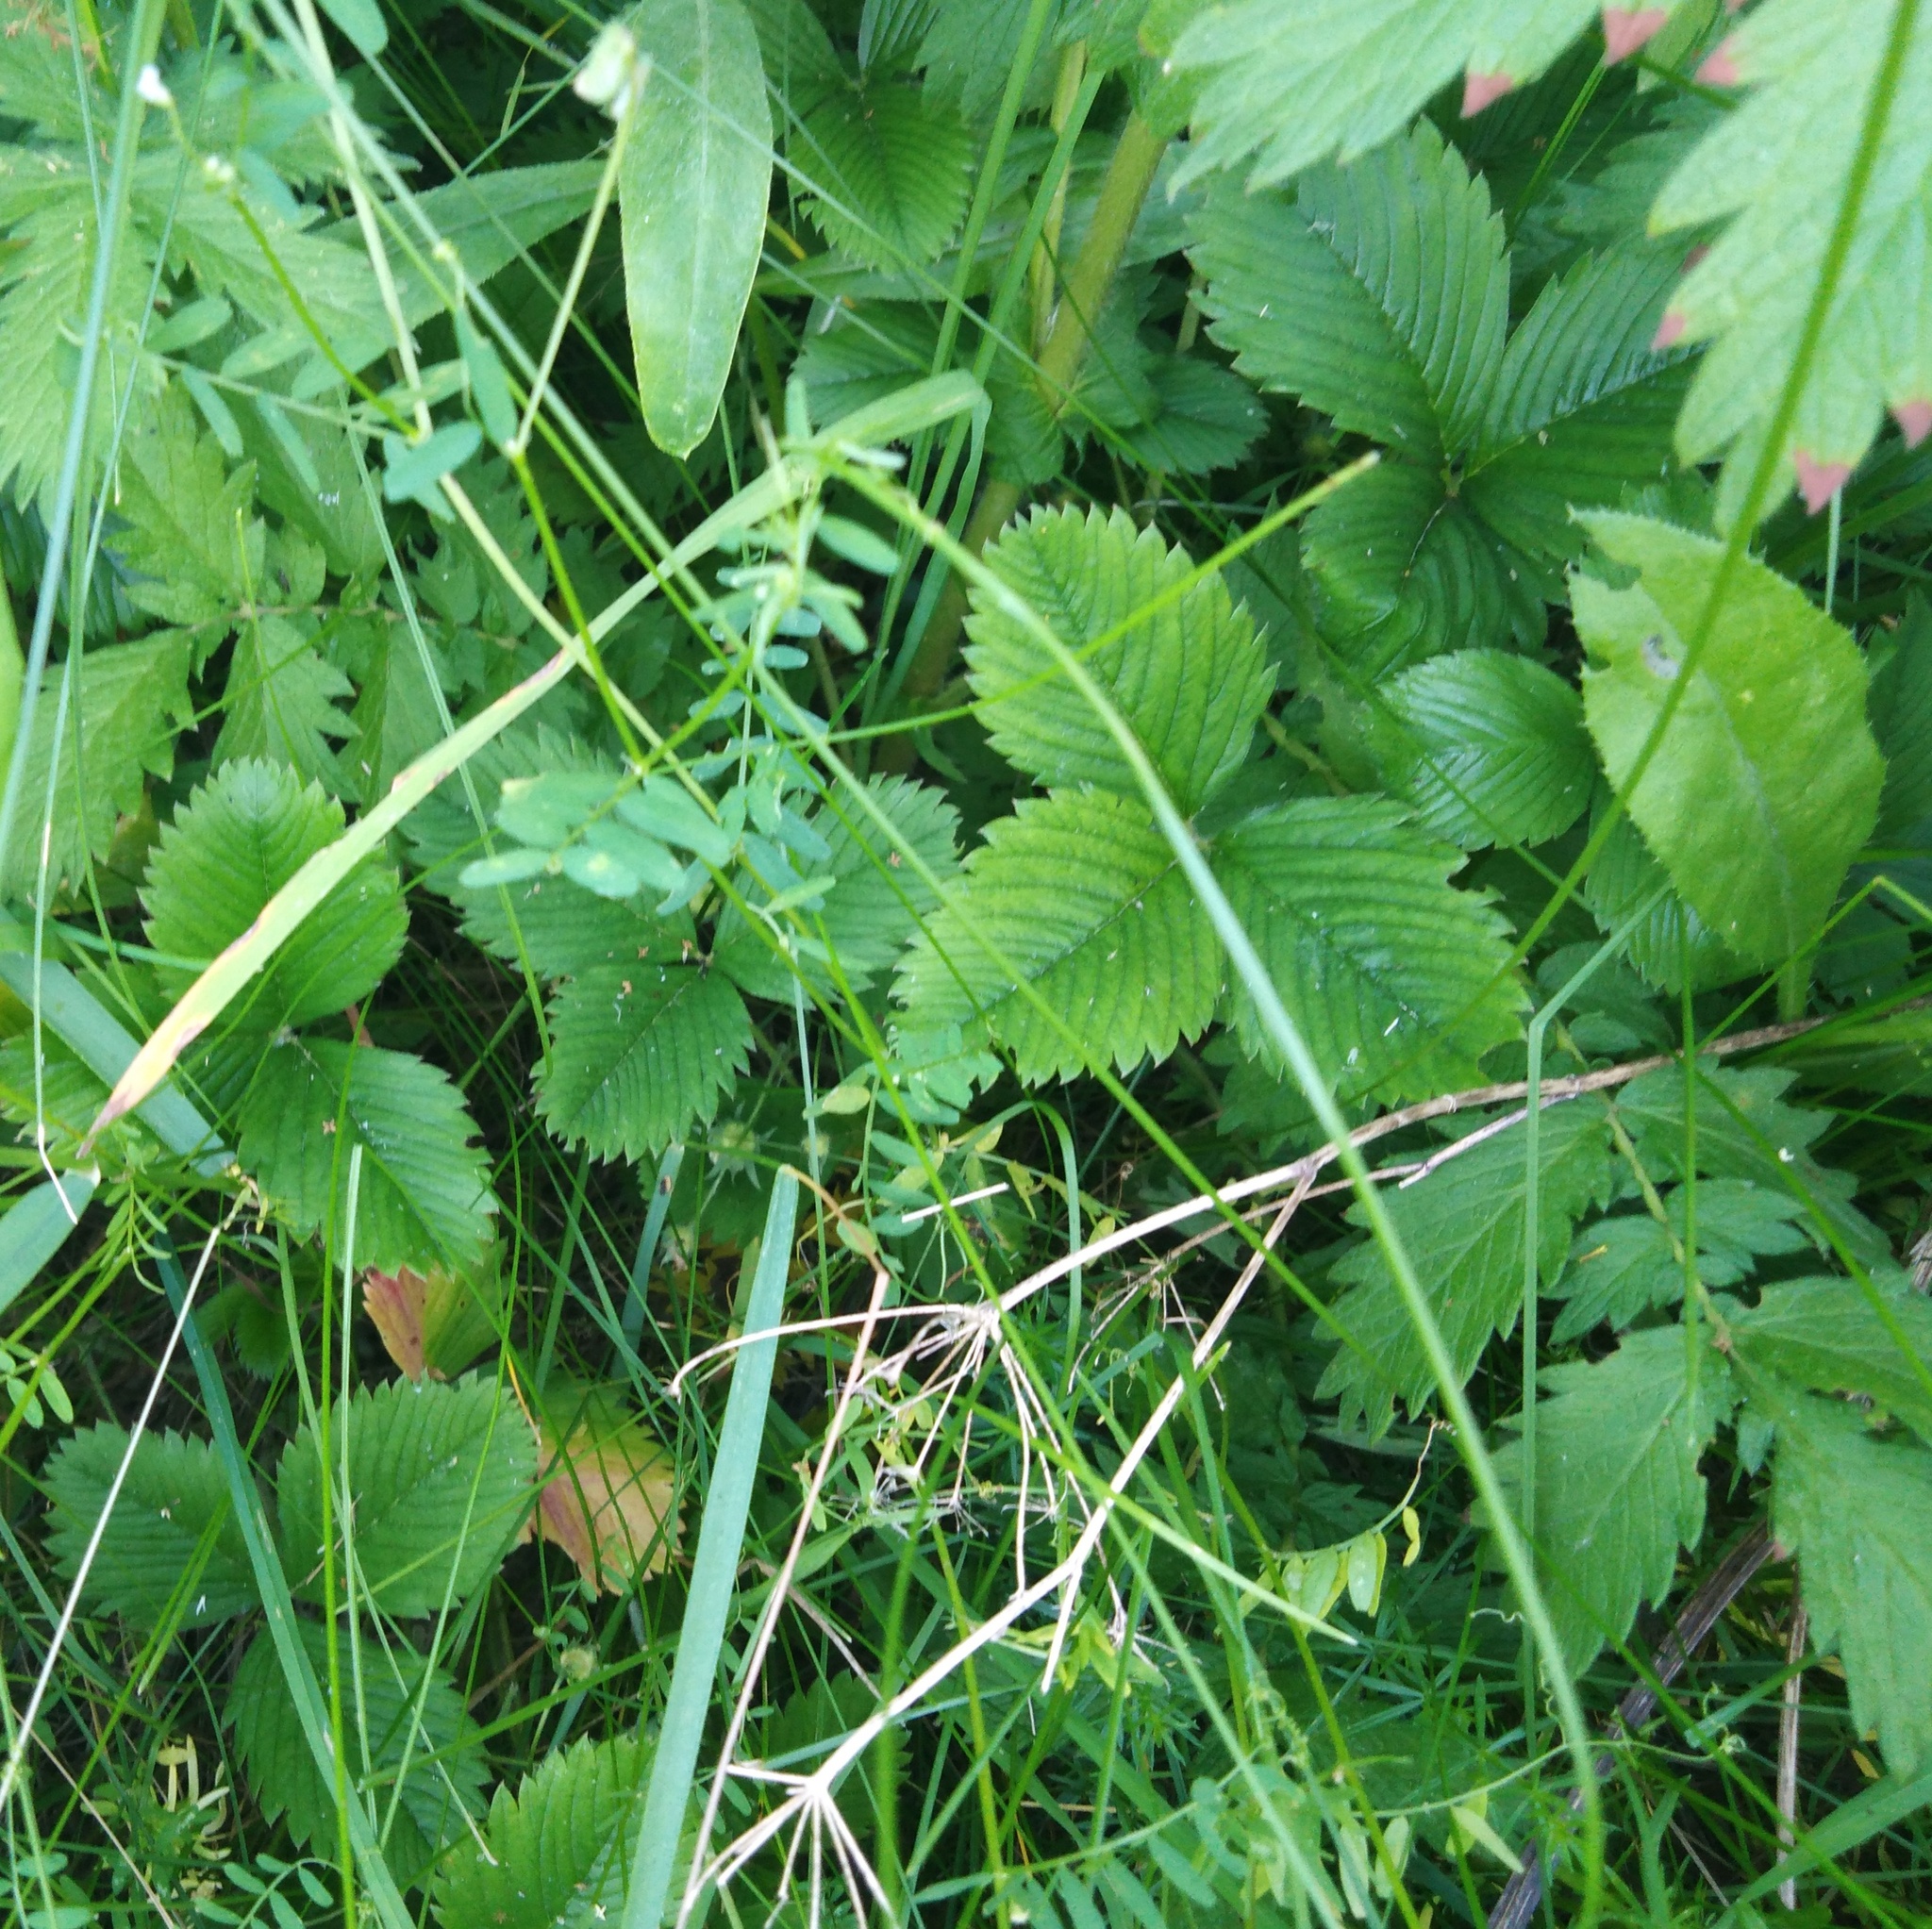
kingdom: Plantae
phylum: Tracheophyta
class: Magnoliopsida
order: Rosales
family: Rosaceae
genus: Fragaria
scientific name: Fragaria viridis
